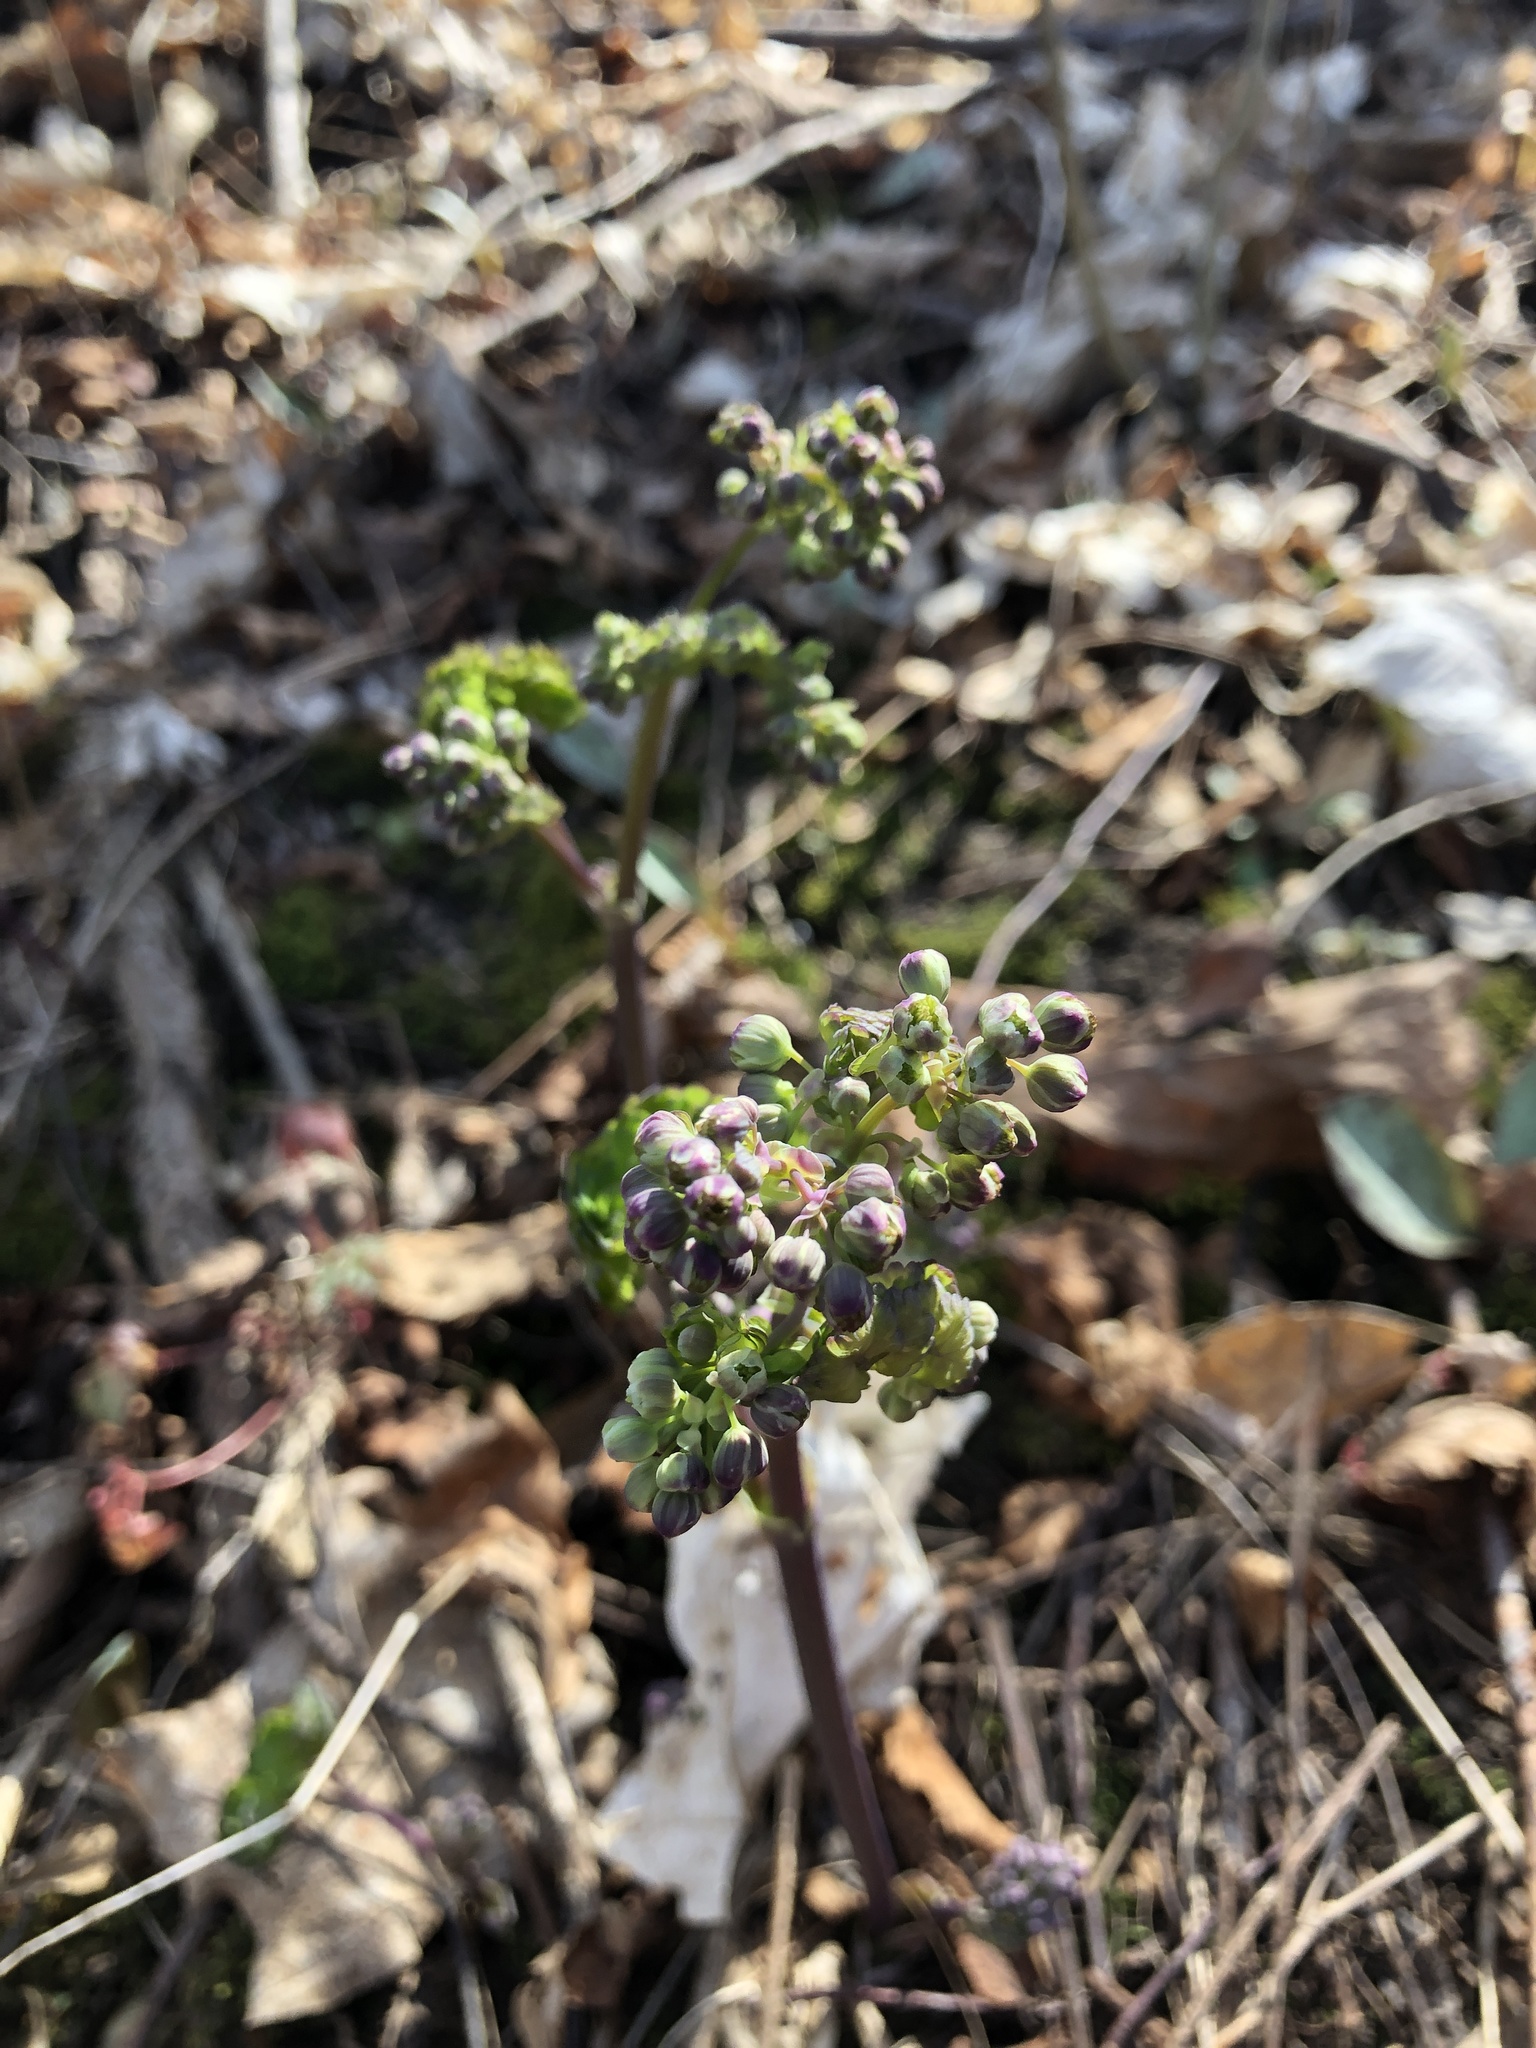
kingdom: Plantae
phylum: Tracheophyta
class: Magnoliopsida
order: Ranunculales
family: Ranunculaceae
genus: Thalictrum
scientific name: Thalictrum dioicum
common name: Early meadow-rue
